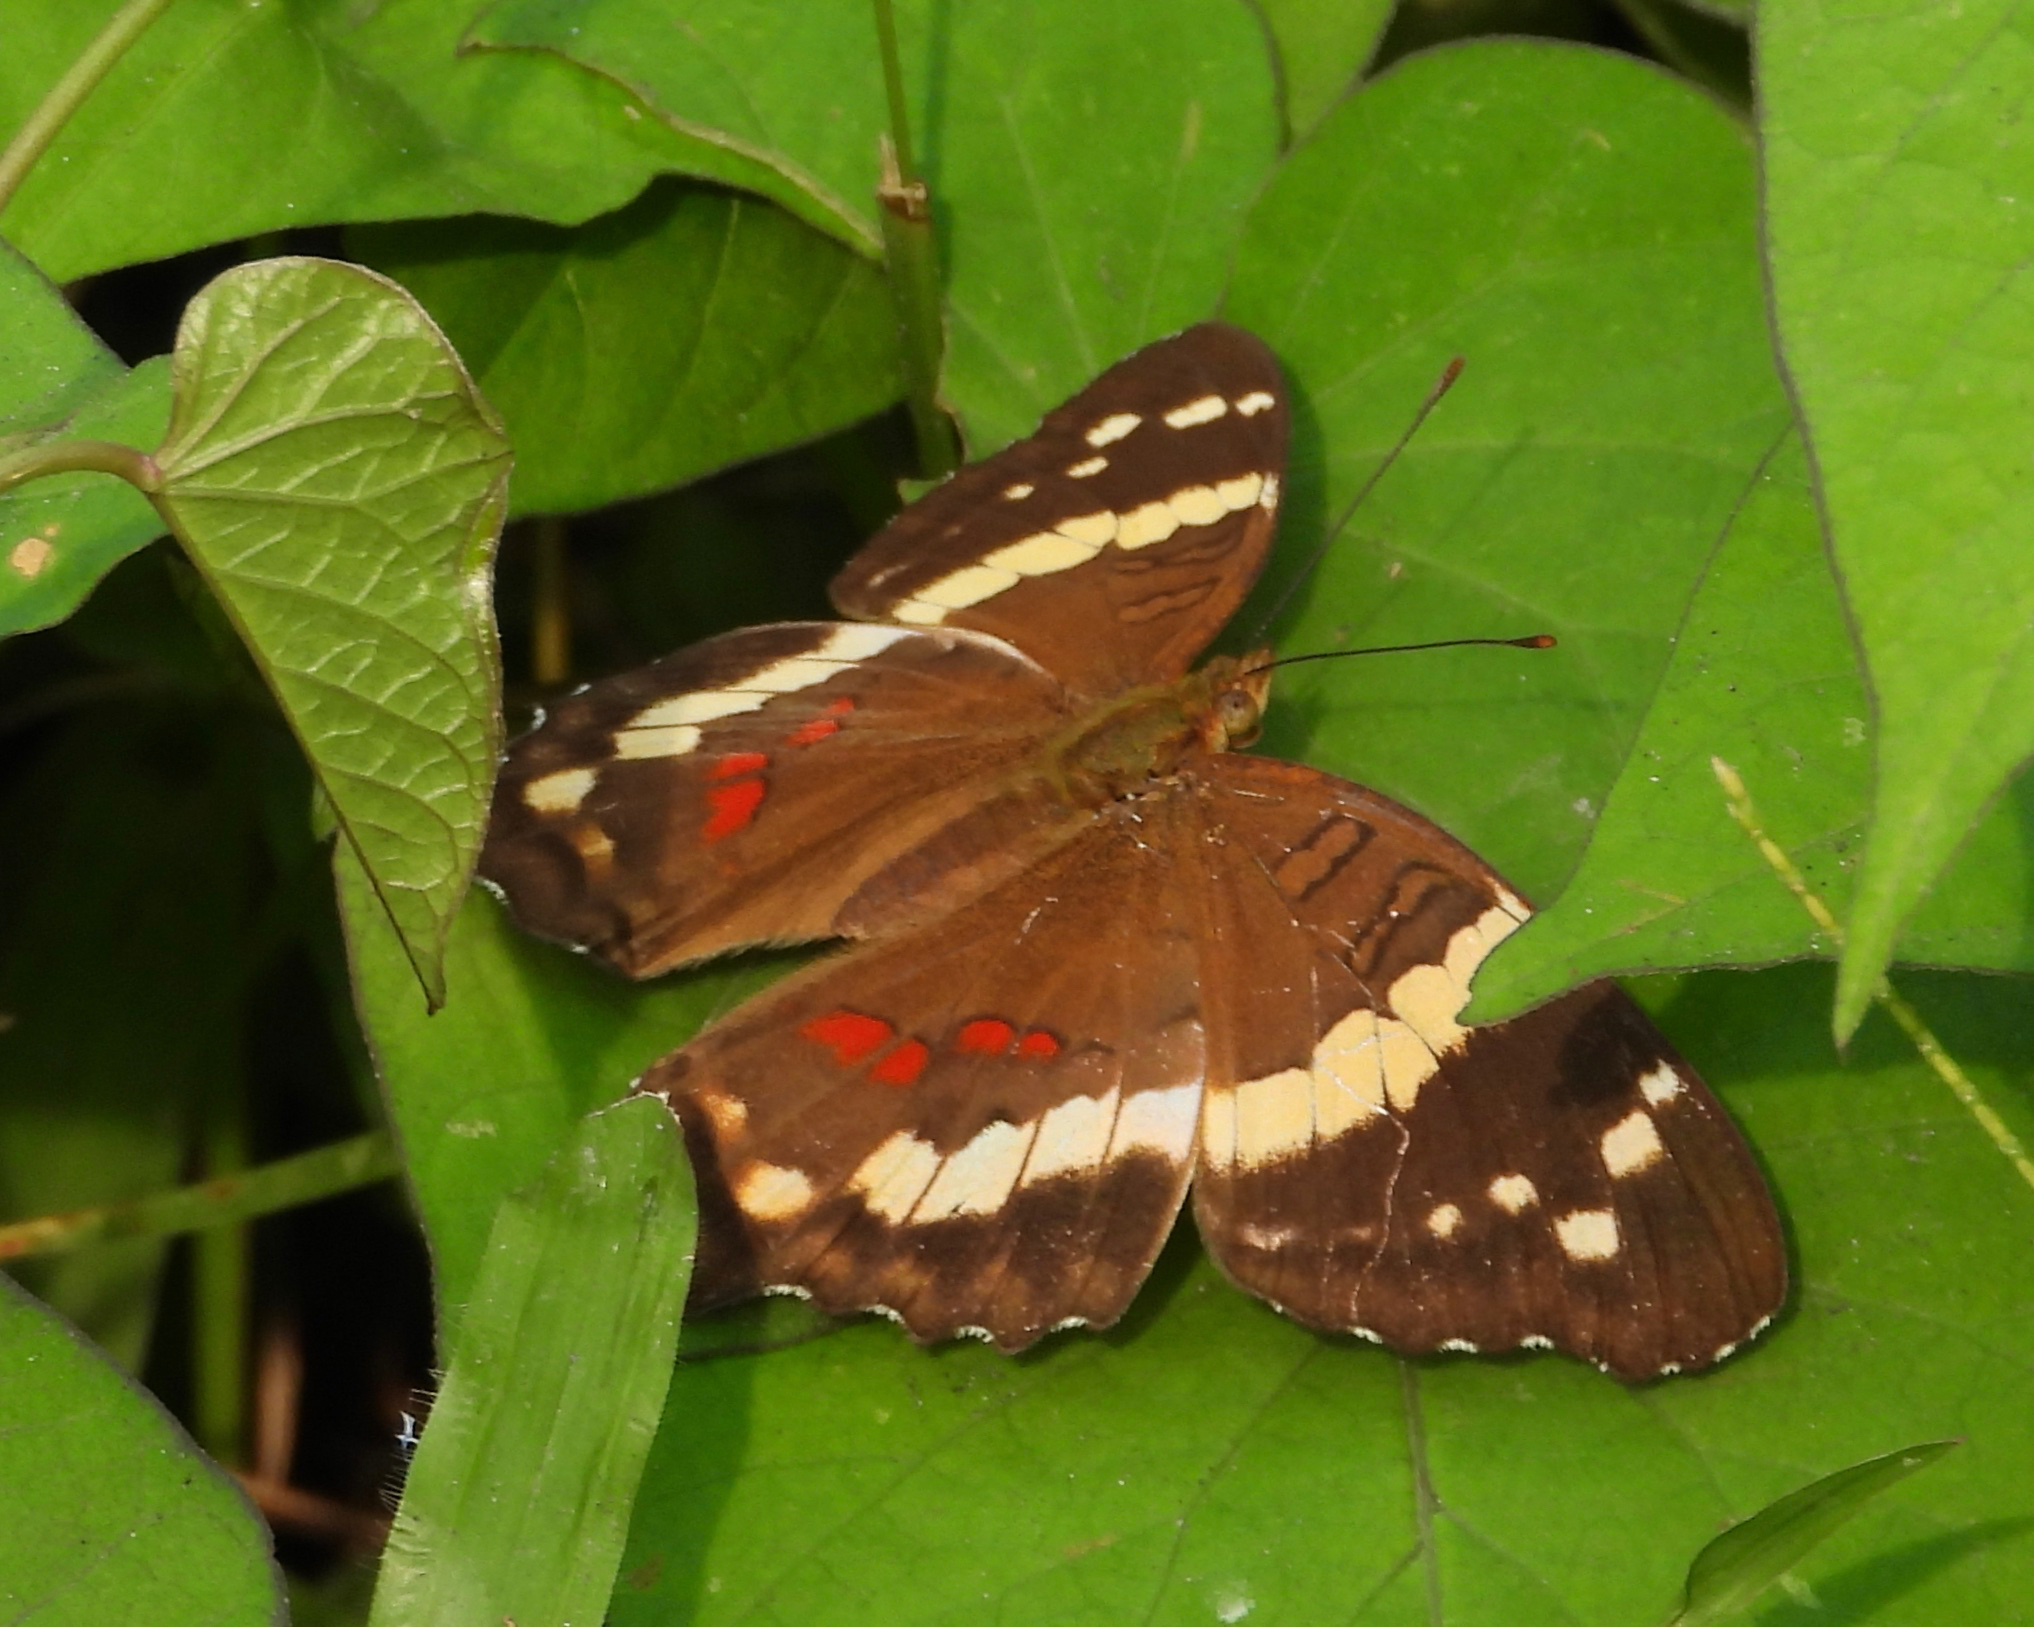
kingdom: Animalia
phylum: Arthropoda
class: Insecta
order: Lepidoptera
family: Nymphalidae
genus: Anartia
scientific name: Anartia fatima
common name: Banded peacock
